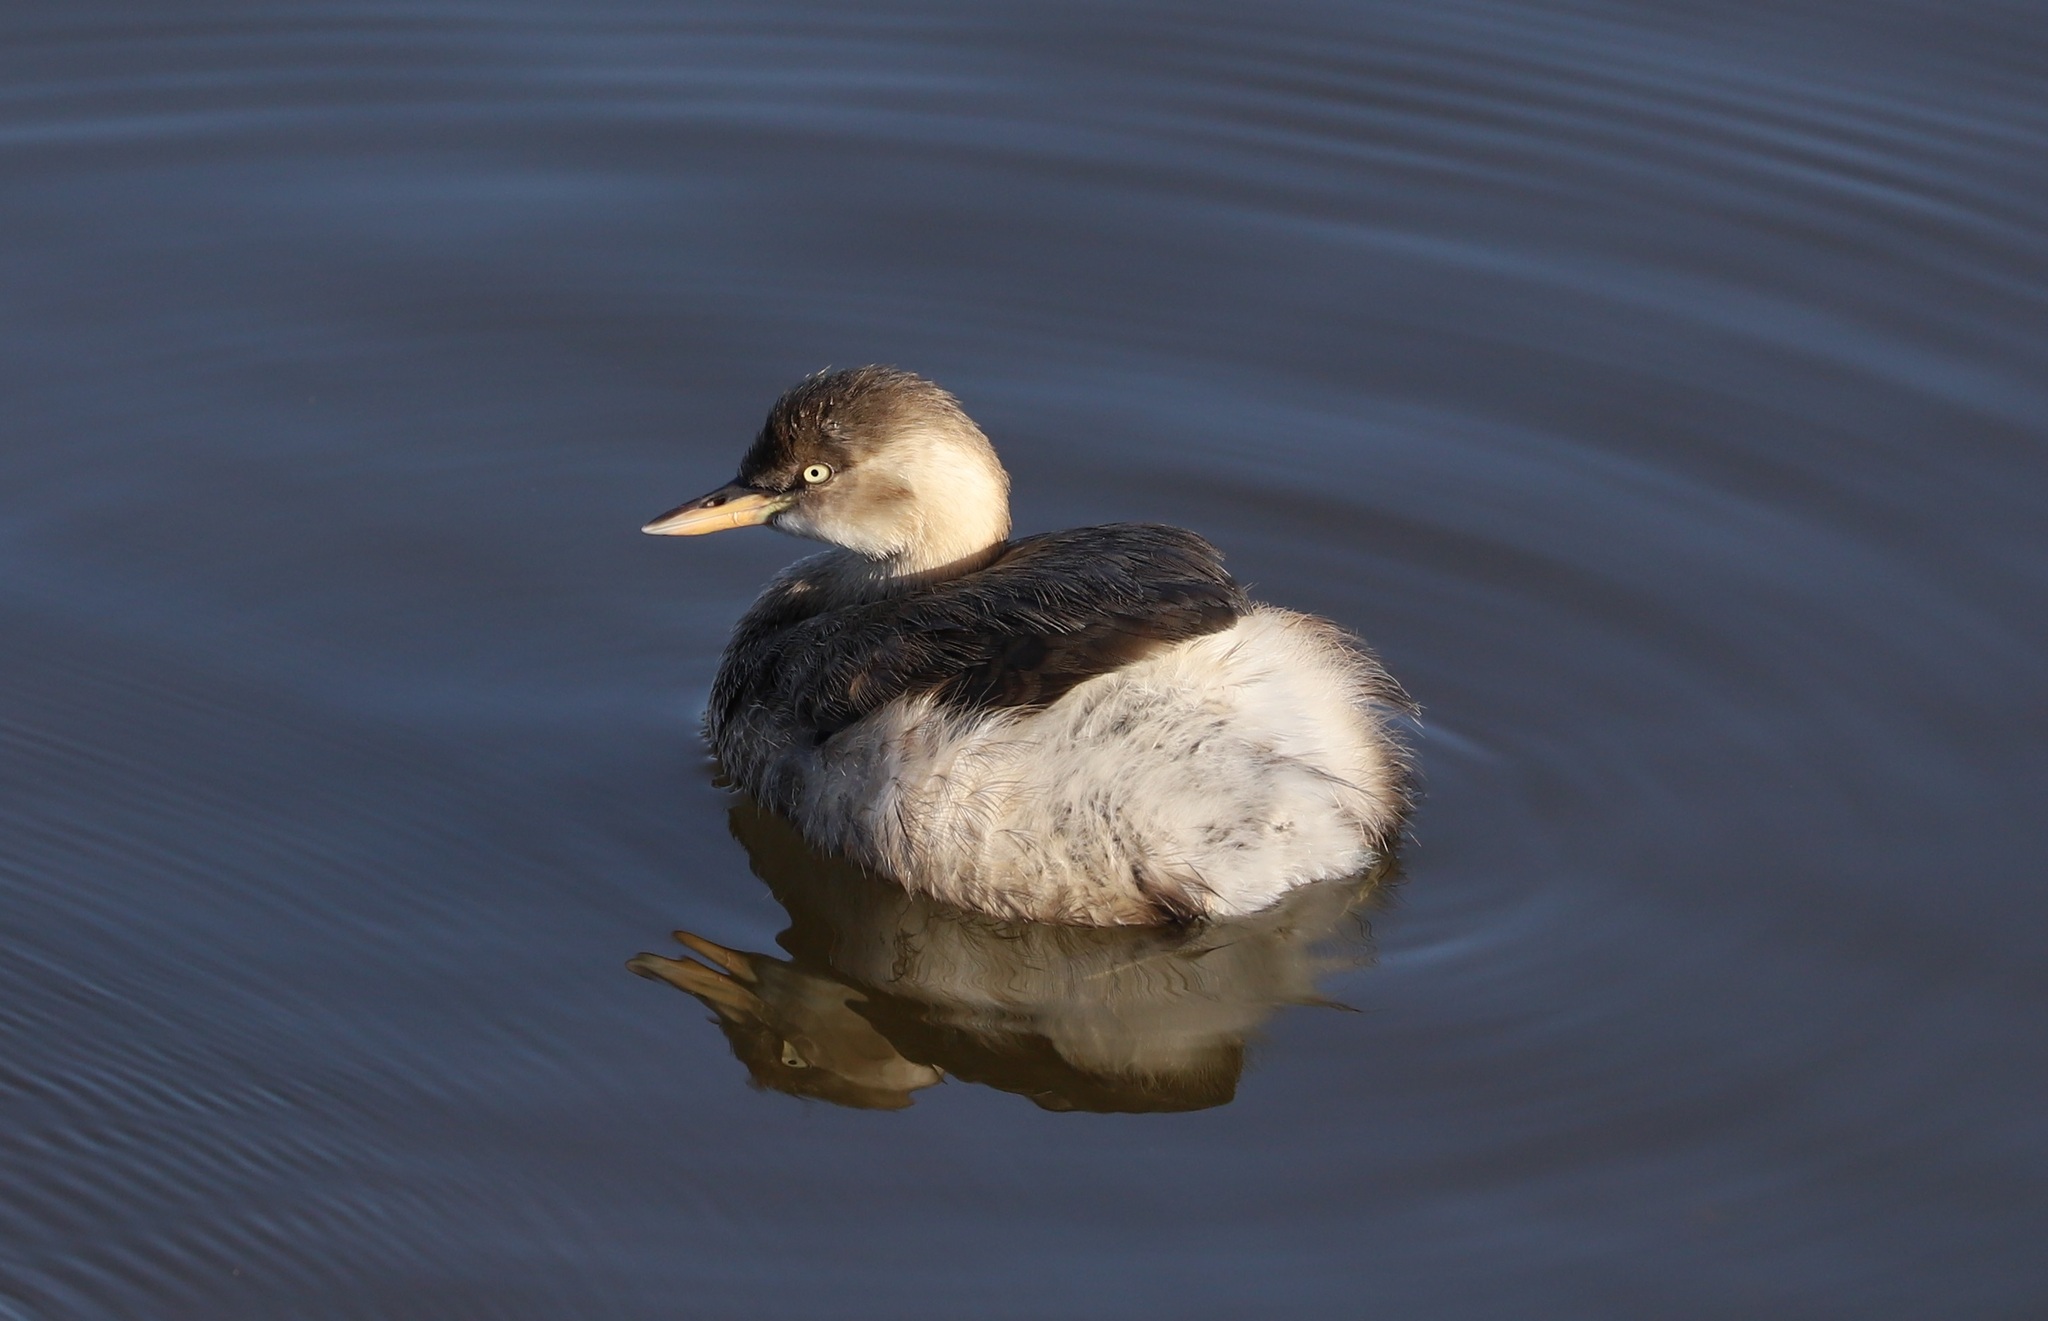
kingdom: Animalia
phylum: Chordata
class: Aves
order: Podicipediformes
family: Podicipedidae
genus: Tachybaptus
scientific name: Tachybaptus ruficollis
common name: Little grebe
